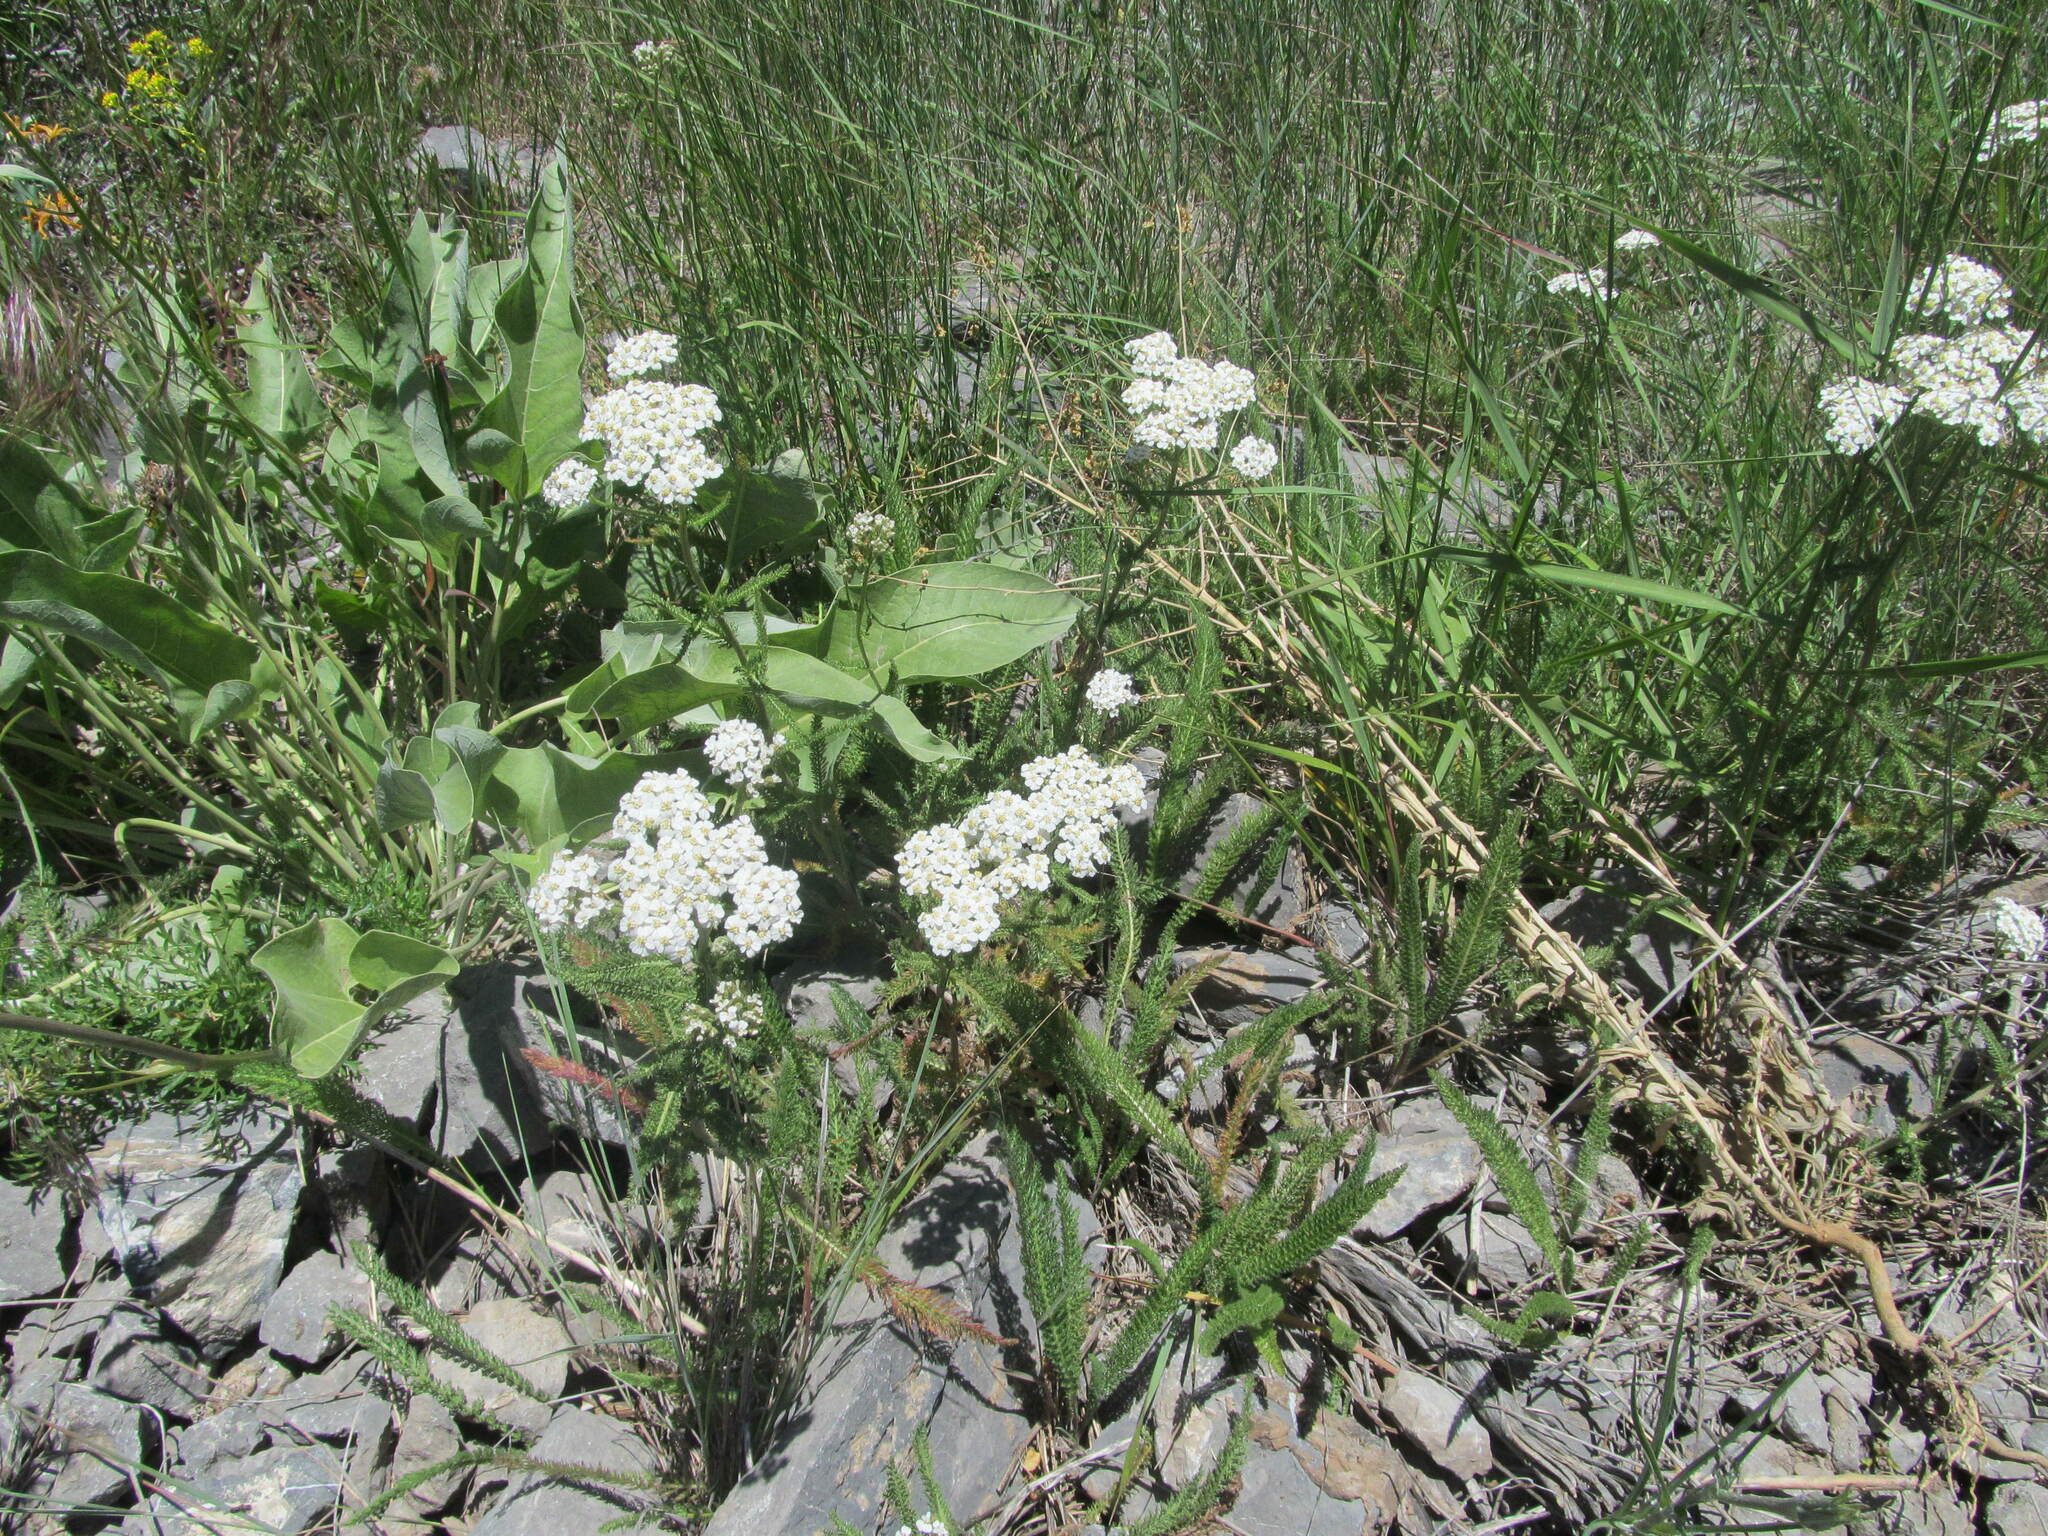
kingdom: Plantae
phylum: Tracheophyta
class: Magnoliopsida
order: Asterales
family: Asteraceae
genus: Achillea
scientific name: Achillea millefolium
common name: Yarrow
